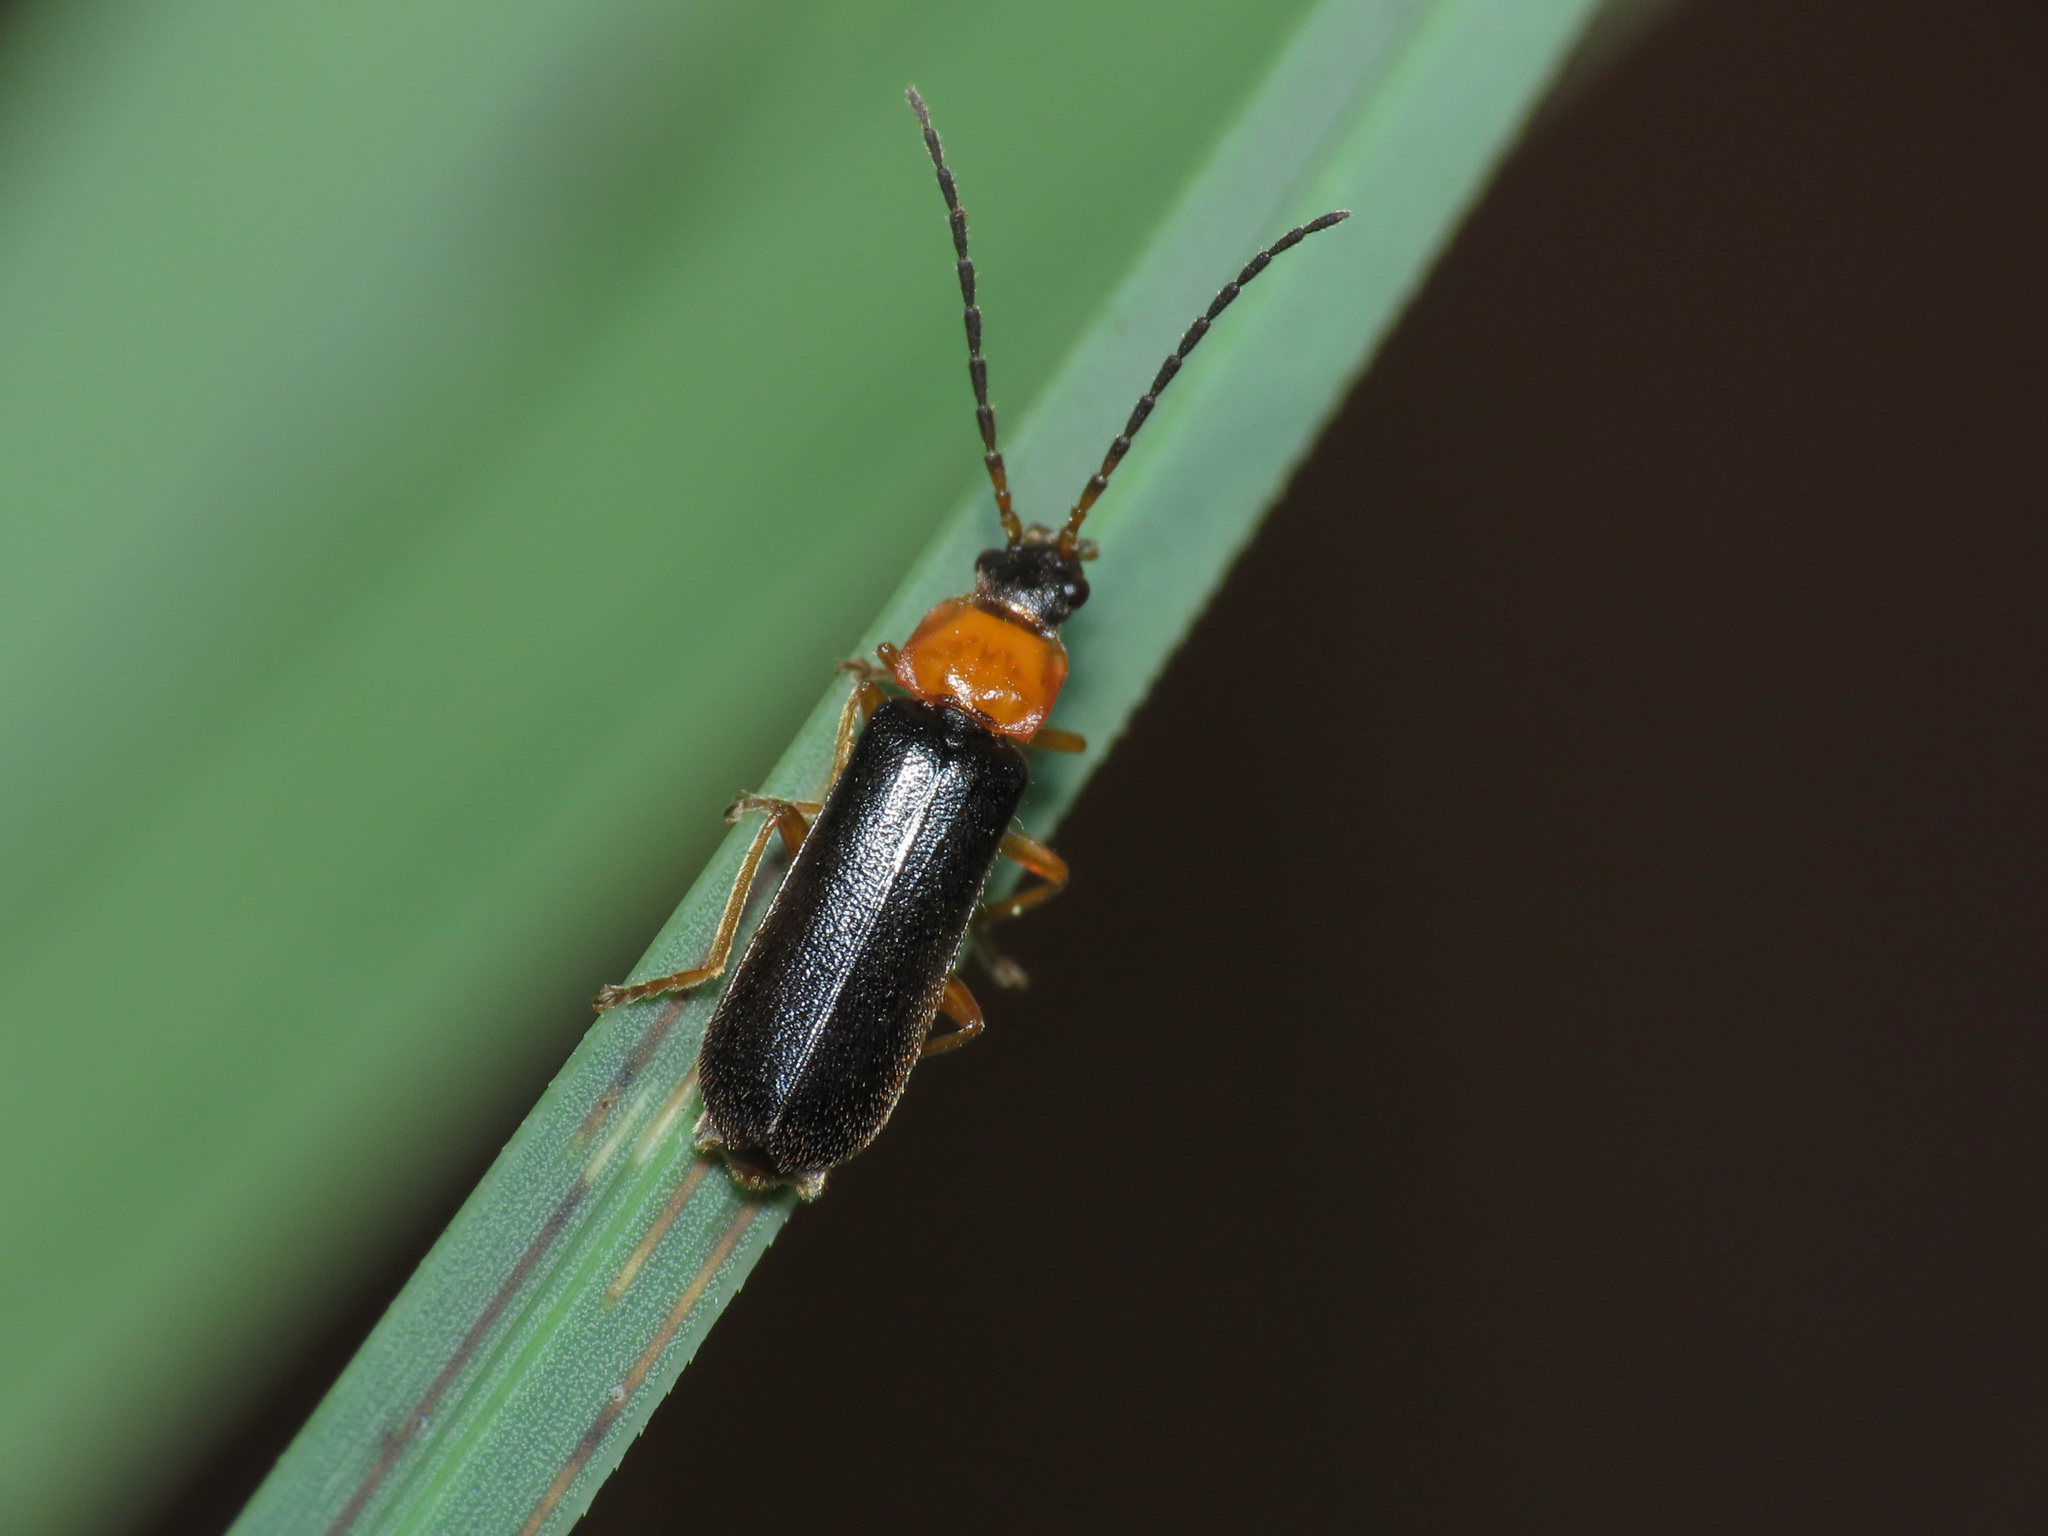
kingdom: Animalia
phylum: Arthropoda
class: Insecta
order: Coleoptera
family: Cantharidae
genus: Cratosilis
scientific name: Cratosilis sicula
